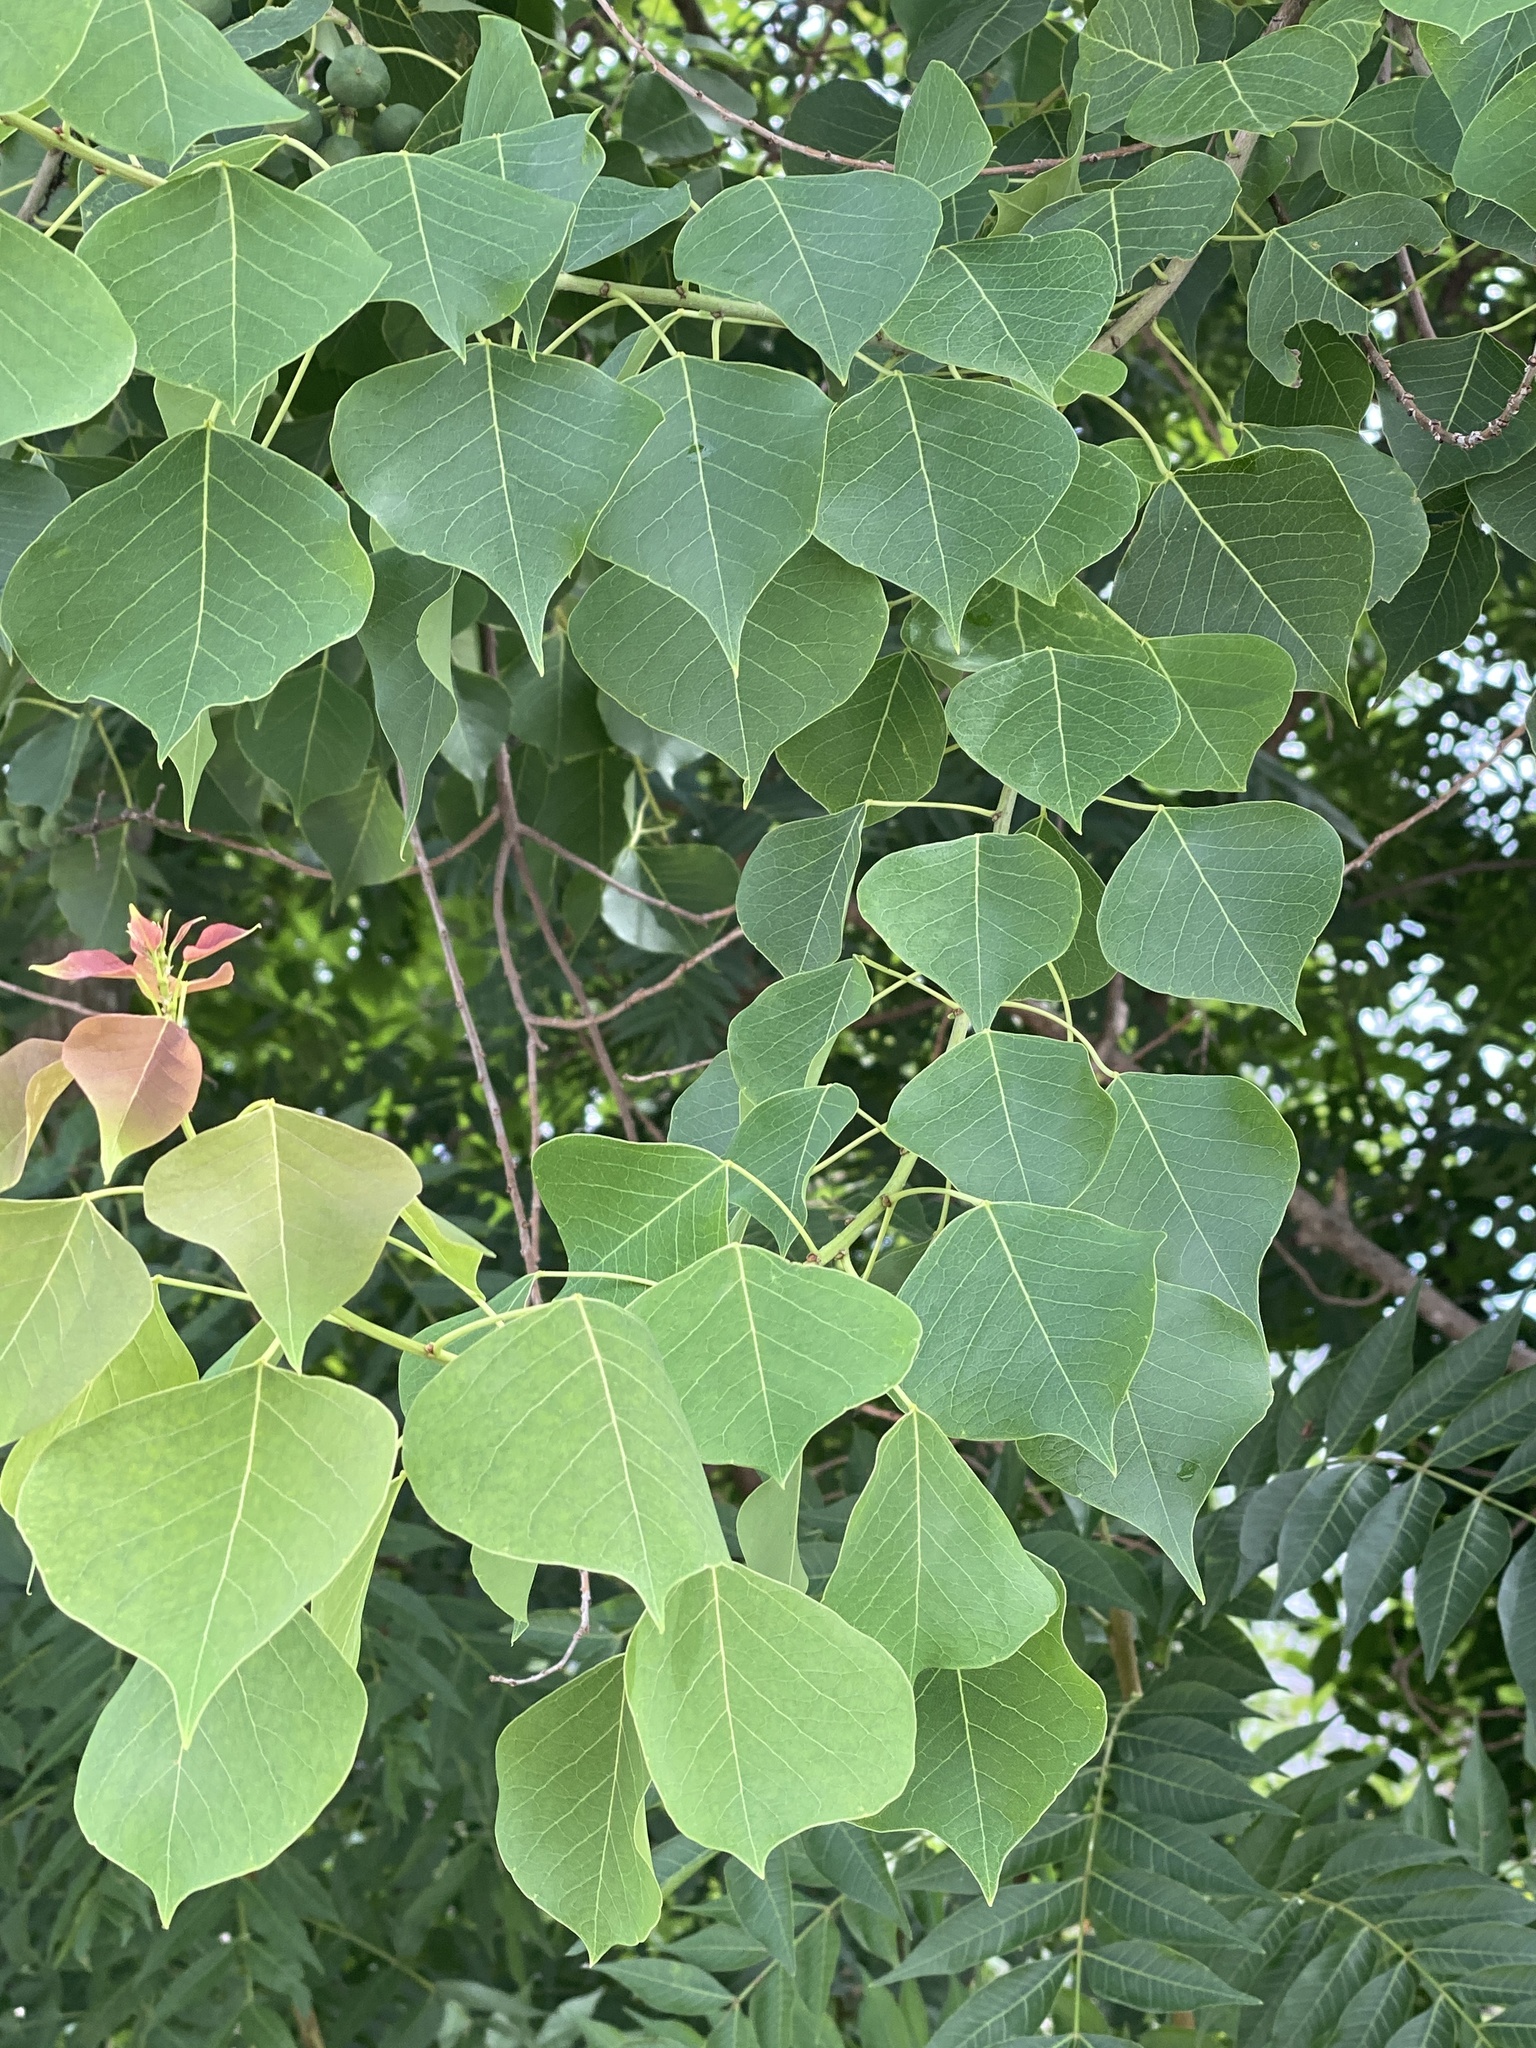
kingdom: Plantae
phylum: Tracheophyta
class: Magnoliopsida
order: Malpighiales
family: Euphorbiaceae
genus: Triadica
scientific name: Triadica sebifera
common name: Chinese tallow
